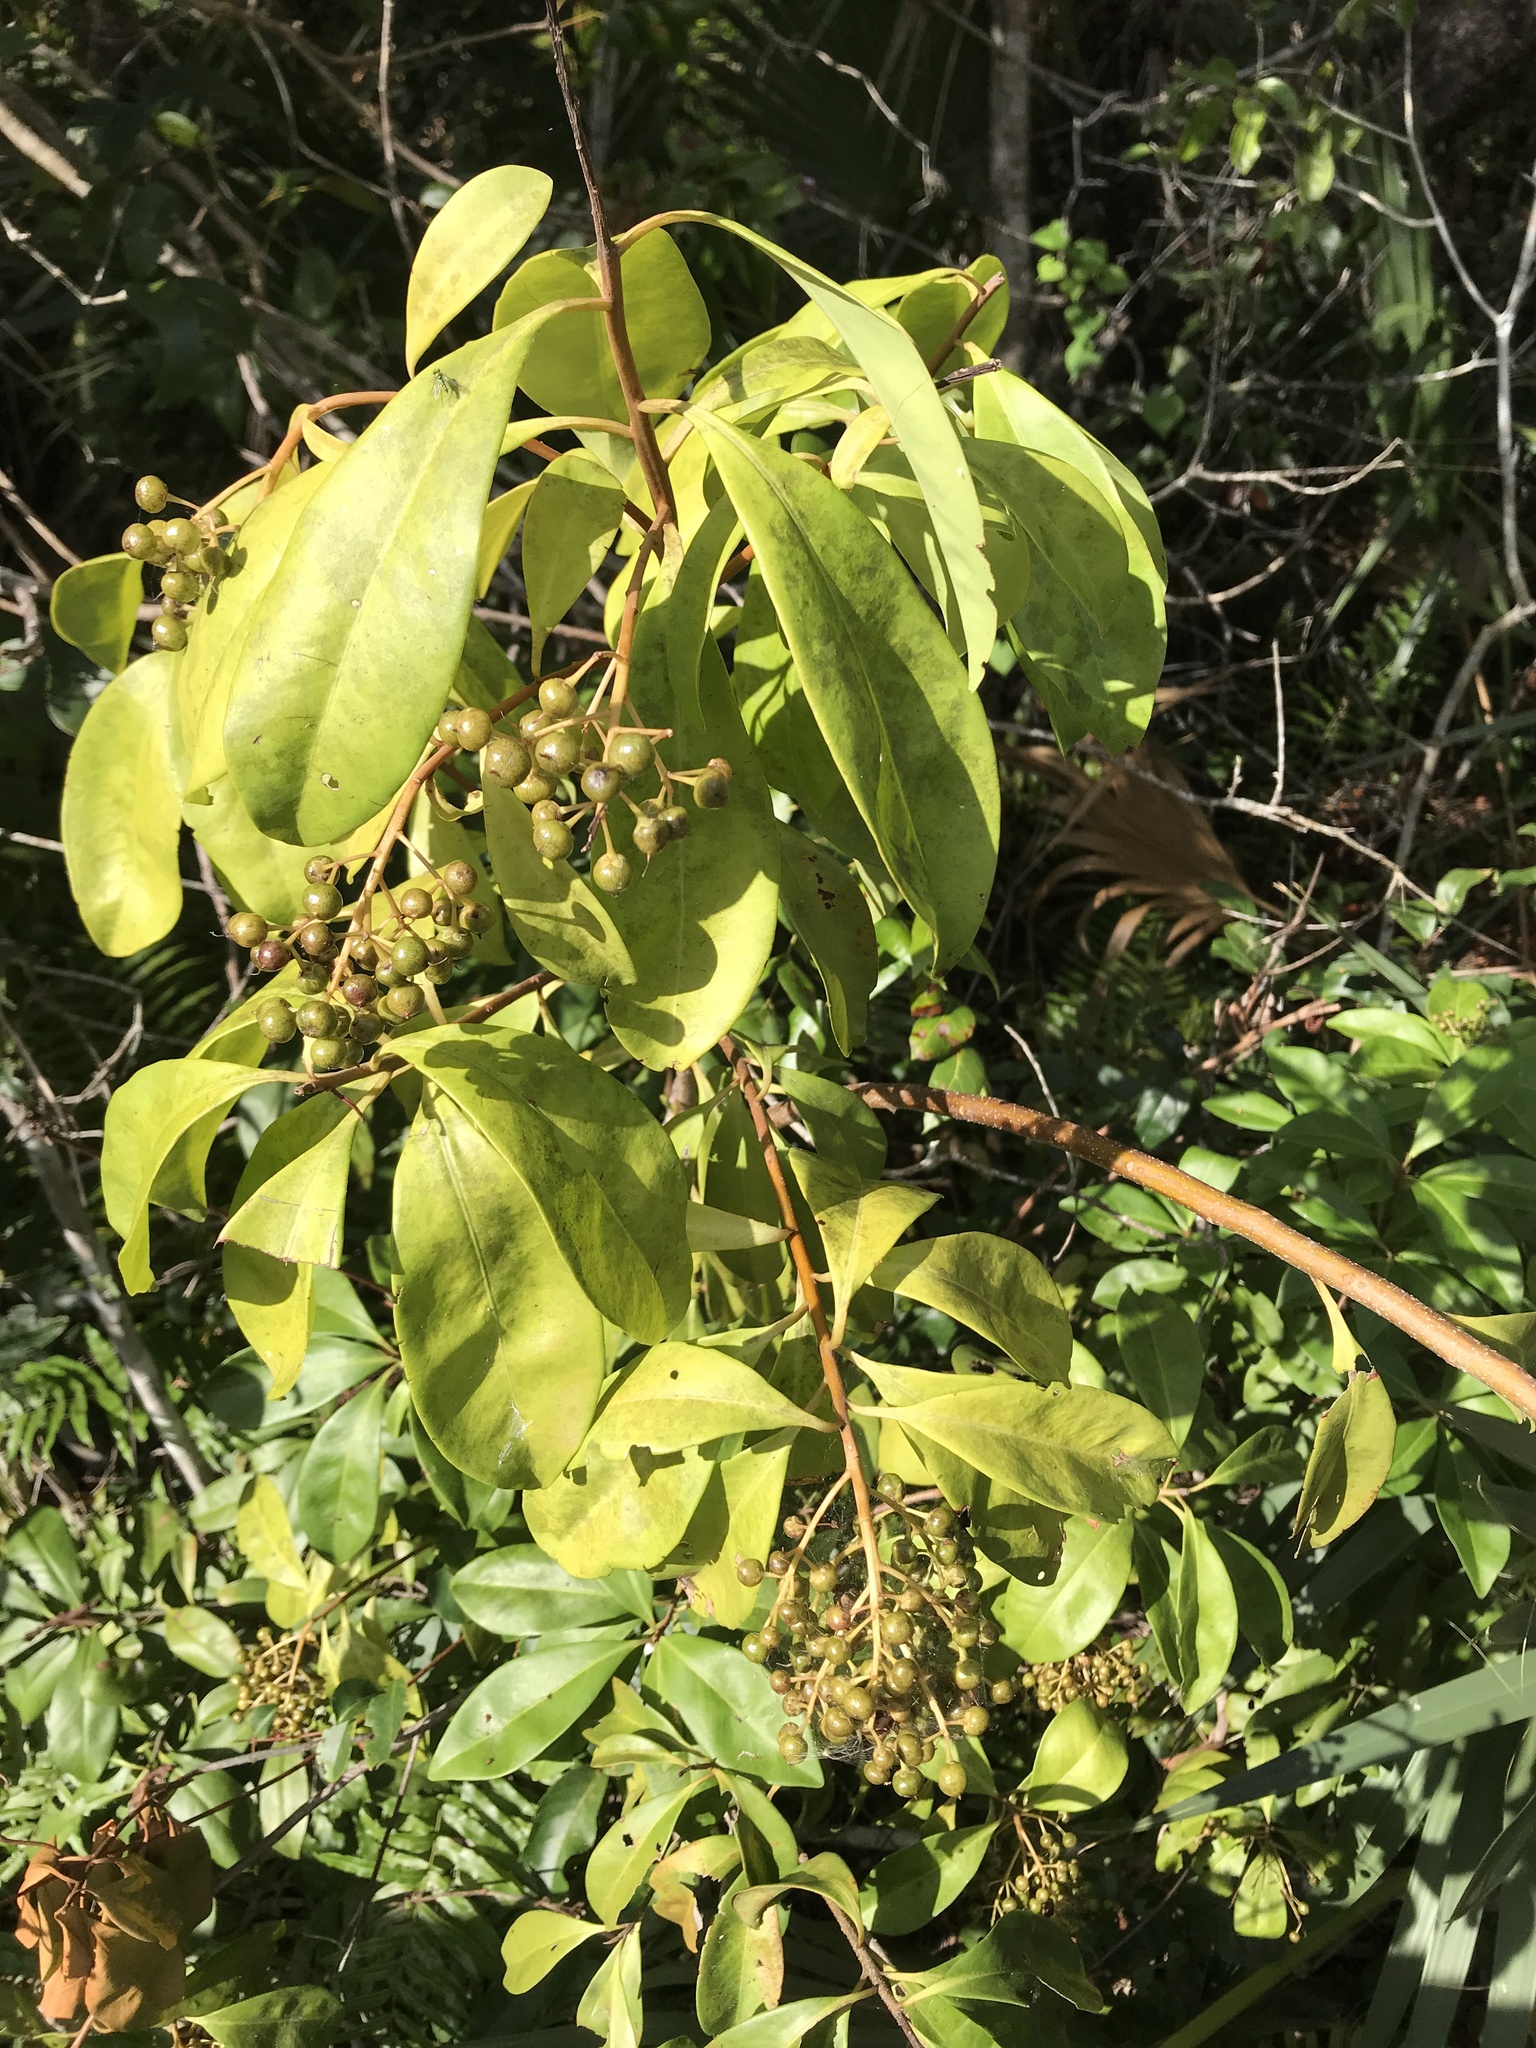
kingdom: Plantae
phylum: Tracheophyta
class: Magnoliopsida
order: Ericales
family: Primulaceae
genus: Ardisia
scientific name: Ardisia escallonioides
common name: Island marlberry
